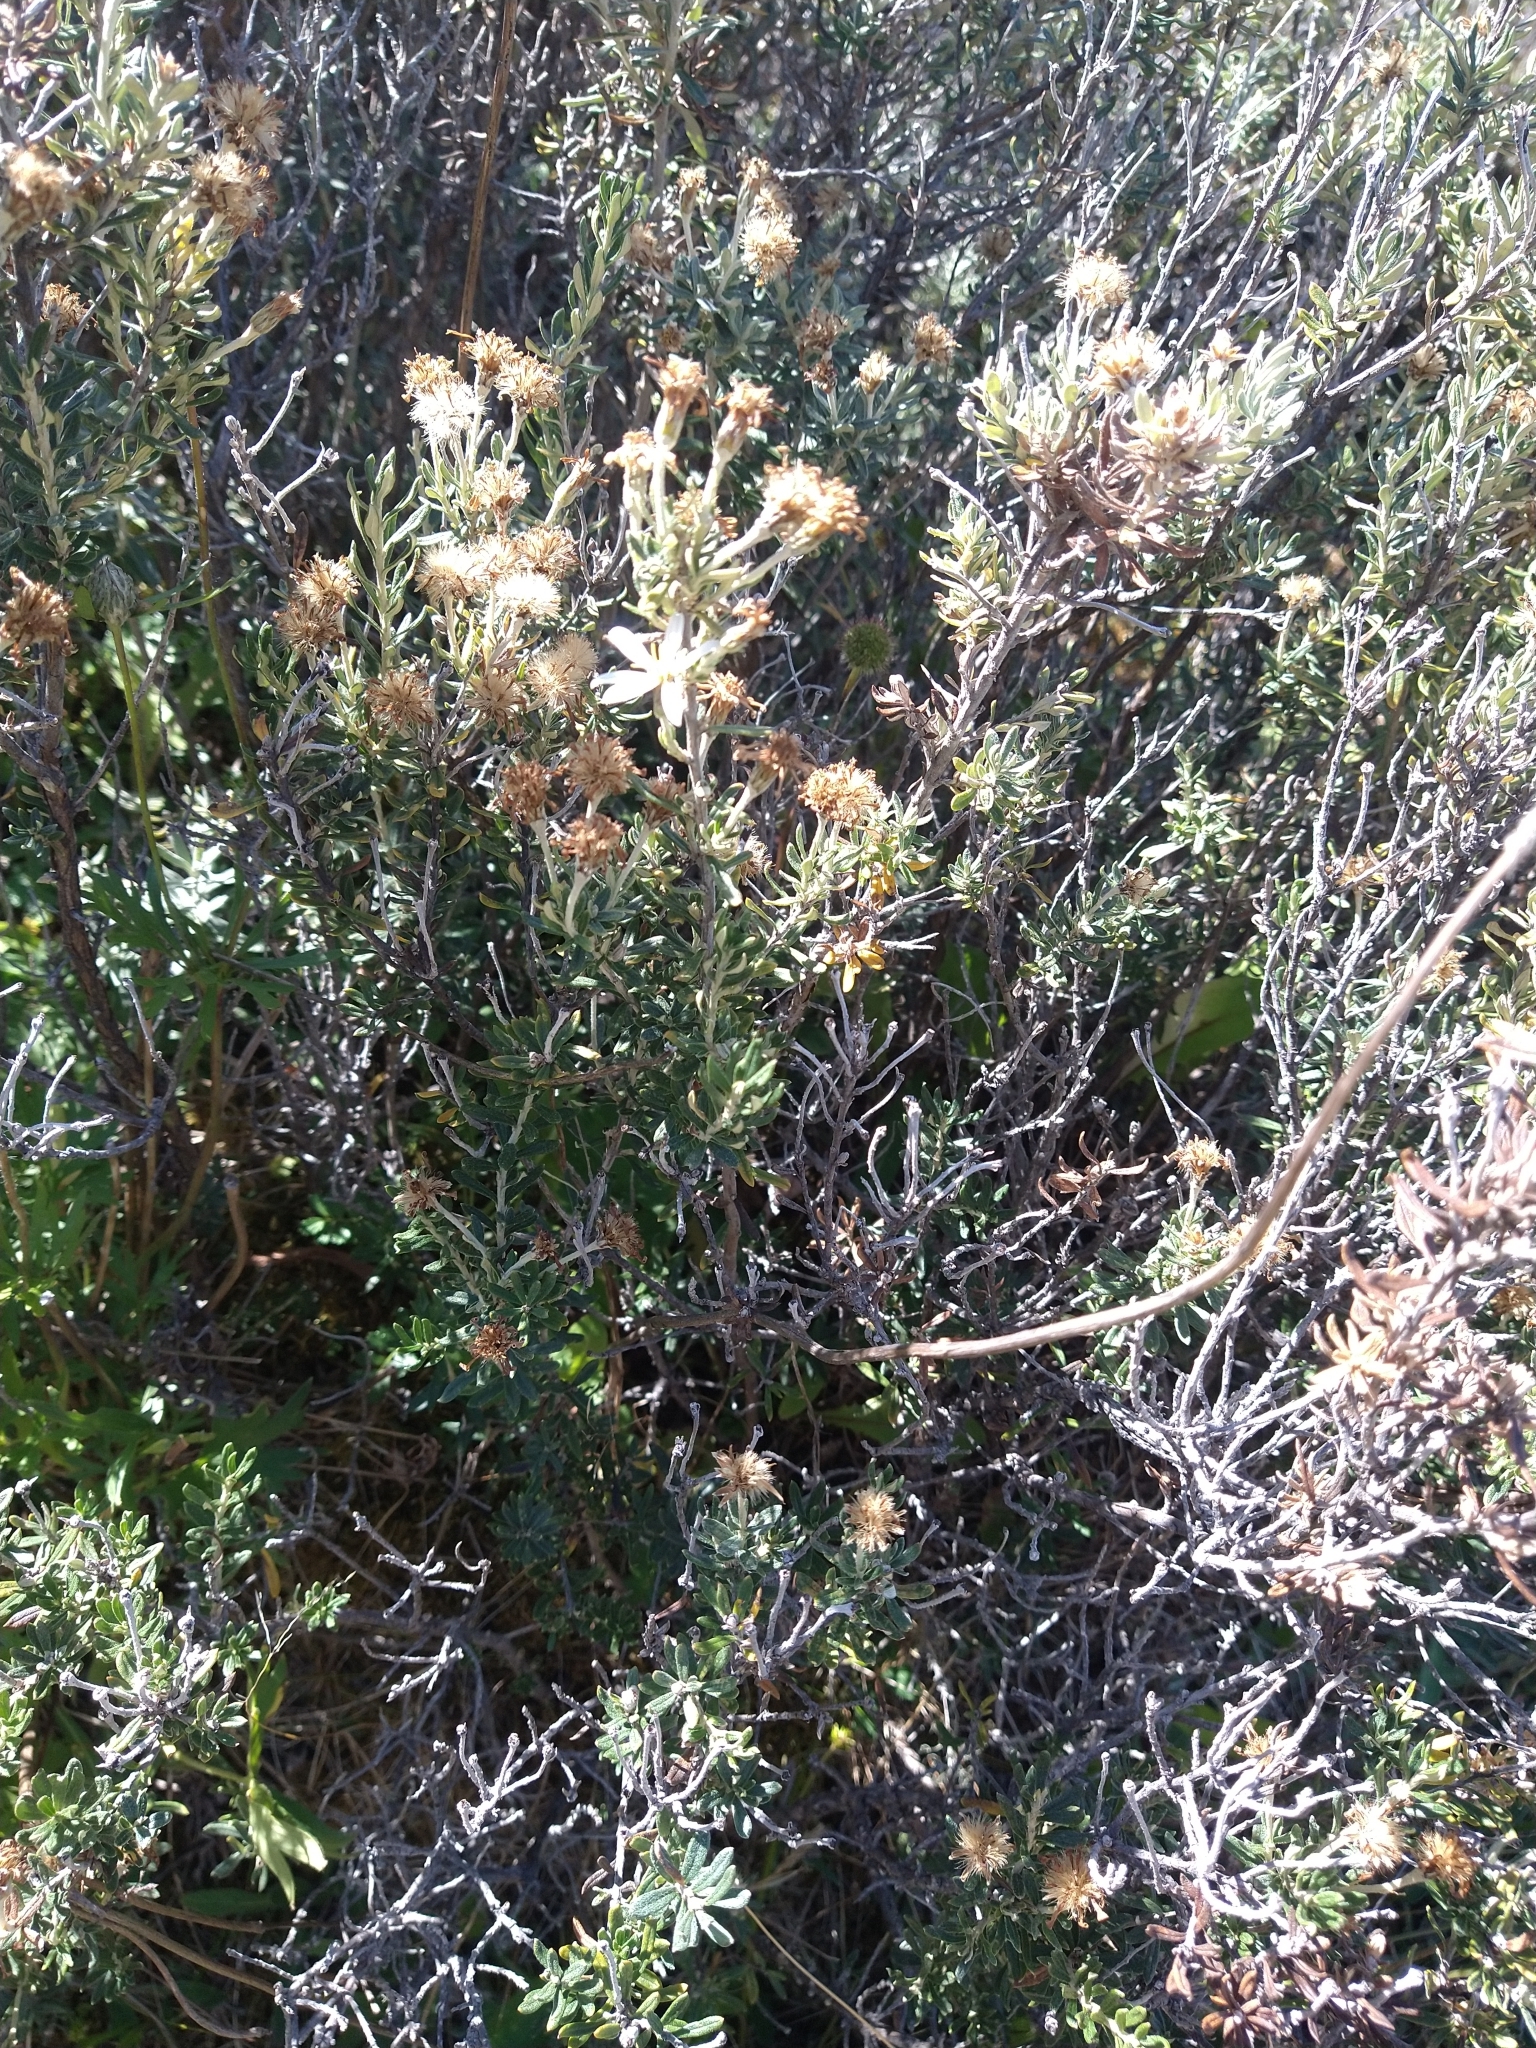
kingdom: Plantae
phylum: Tracheophyta
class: Magnoliopsida
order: Asterales
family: Asteraceae
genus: Chiliotrichum
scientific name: Chiliotrichum diffusum
